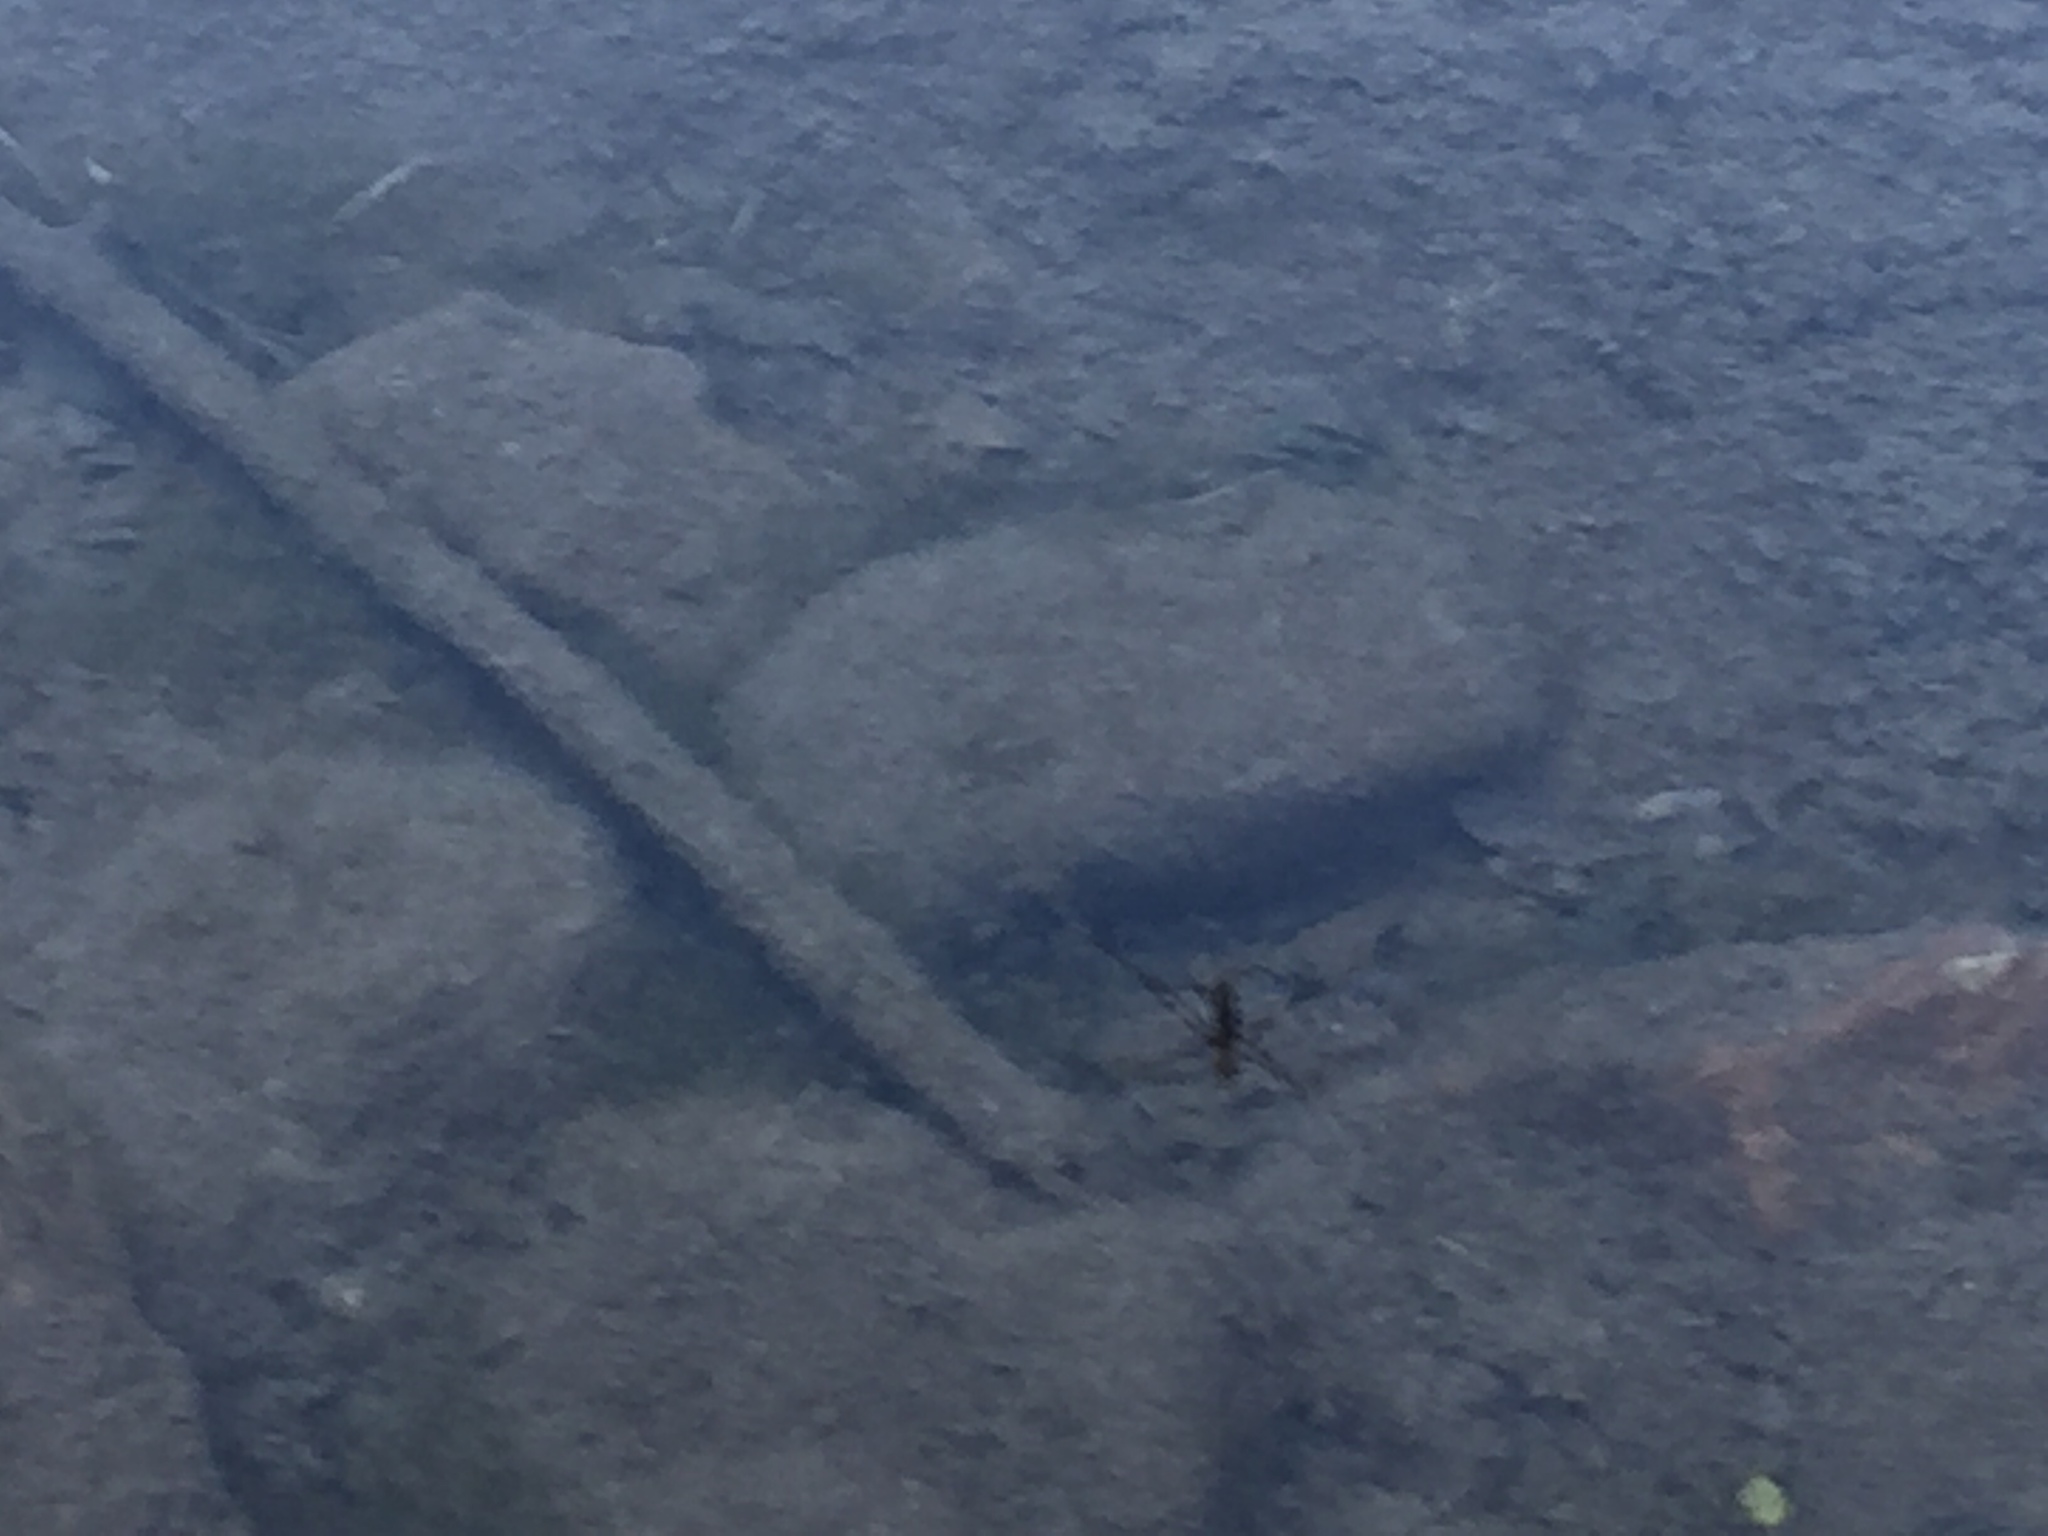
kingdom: Animalia
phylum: Arthropoda
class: Insecta
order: Hemiptera
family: Gerridae
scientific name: Gerridae
